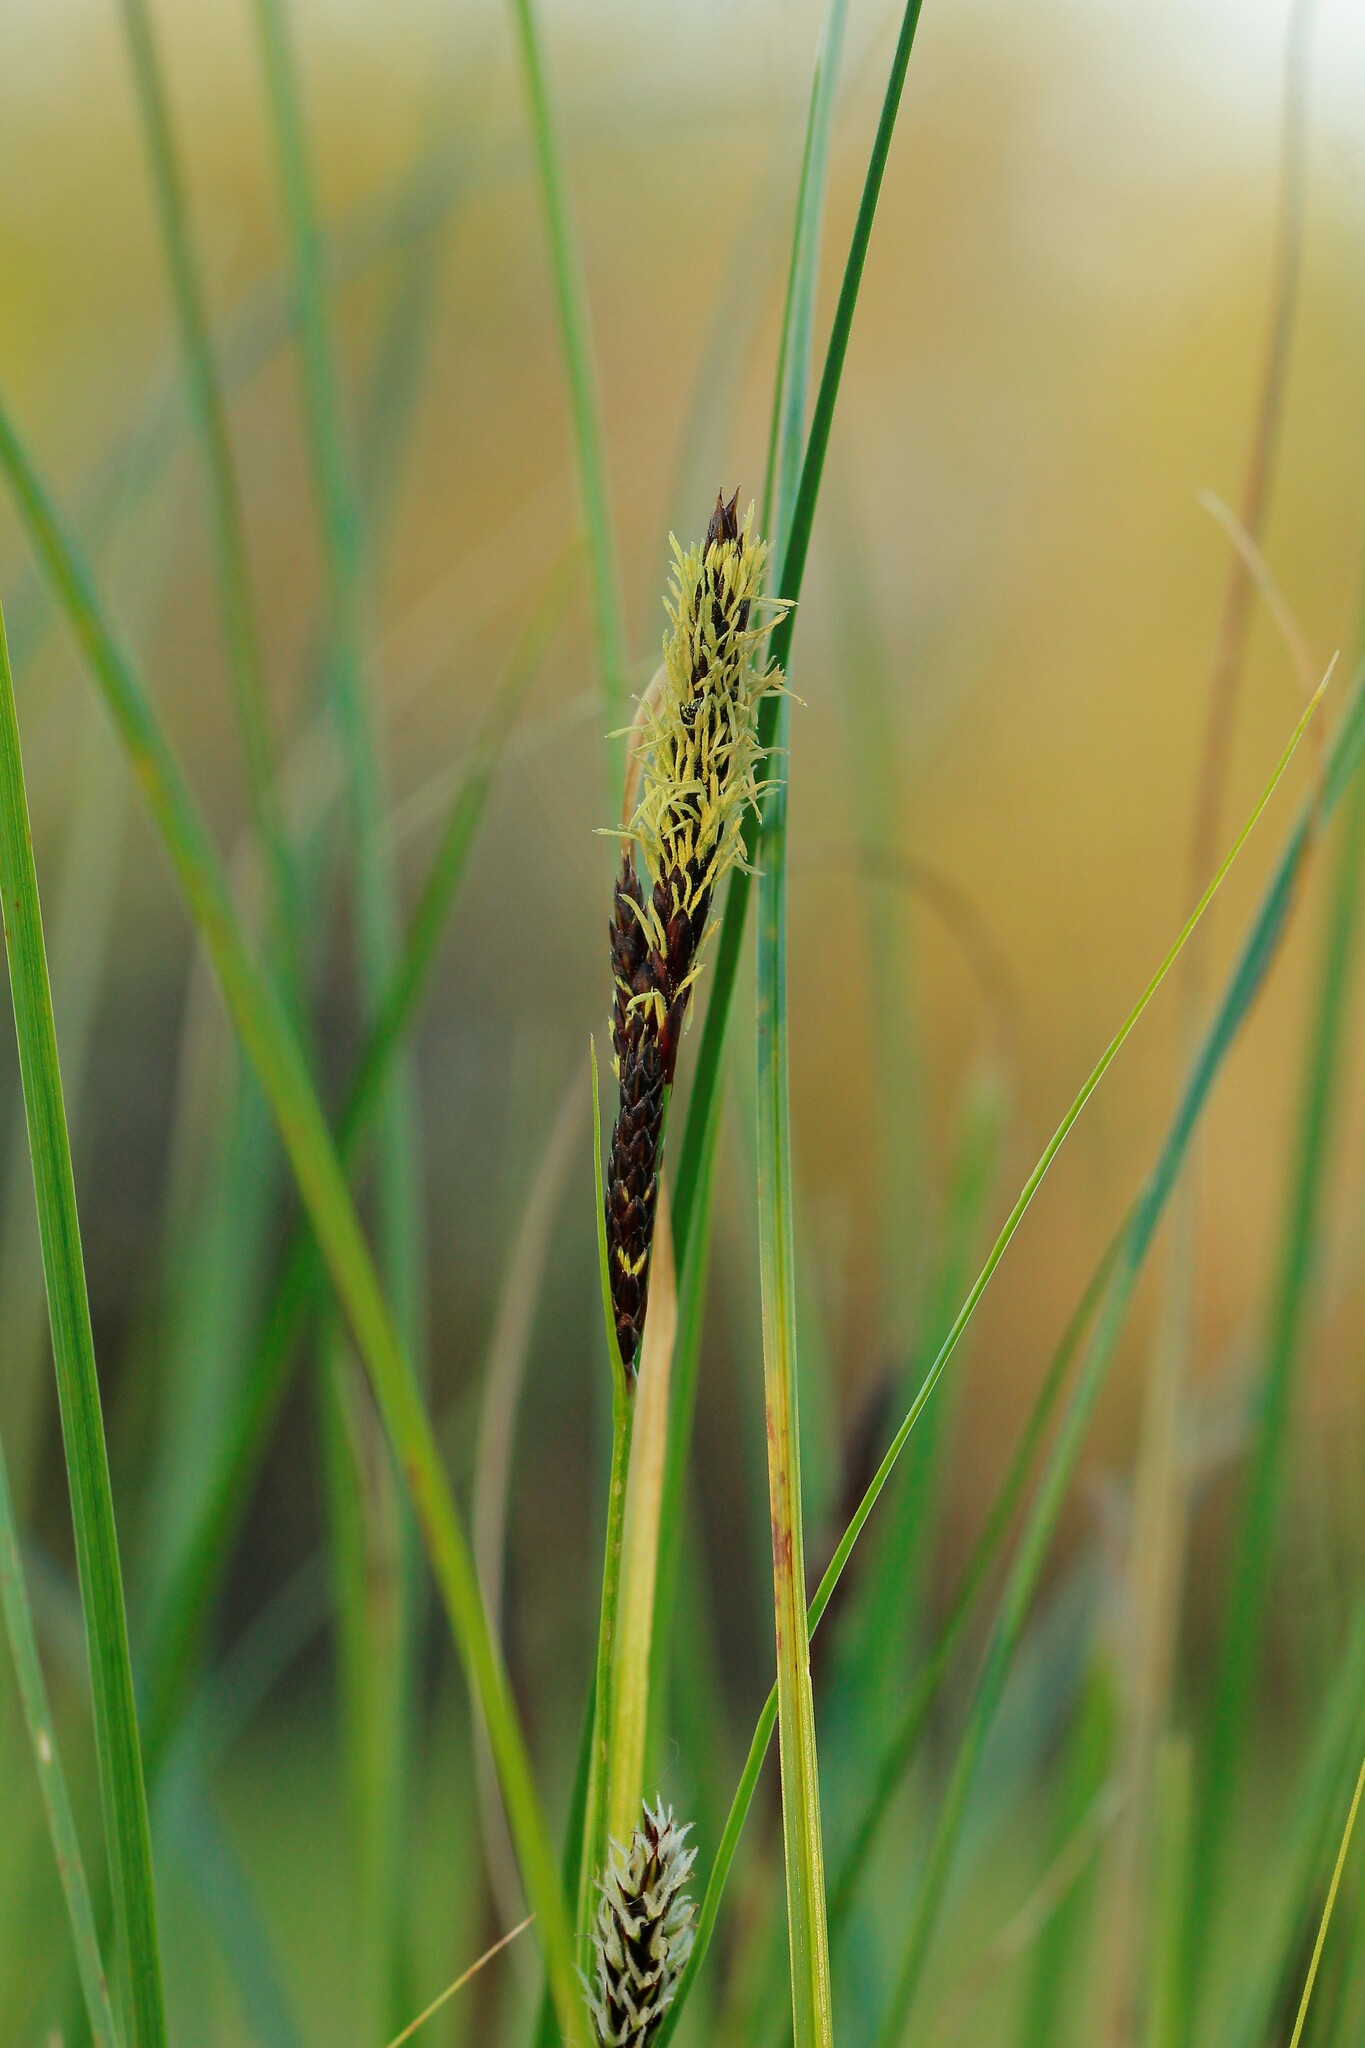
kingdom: Plantae
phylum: Tracheophyta
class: Liliopsida
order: Poales
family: Cyperaceae
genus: Carex
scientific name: Carex melanostachya
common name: Black-spiked sedge
